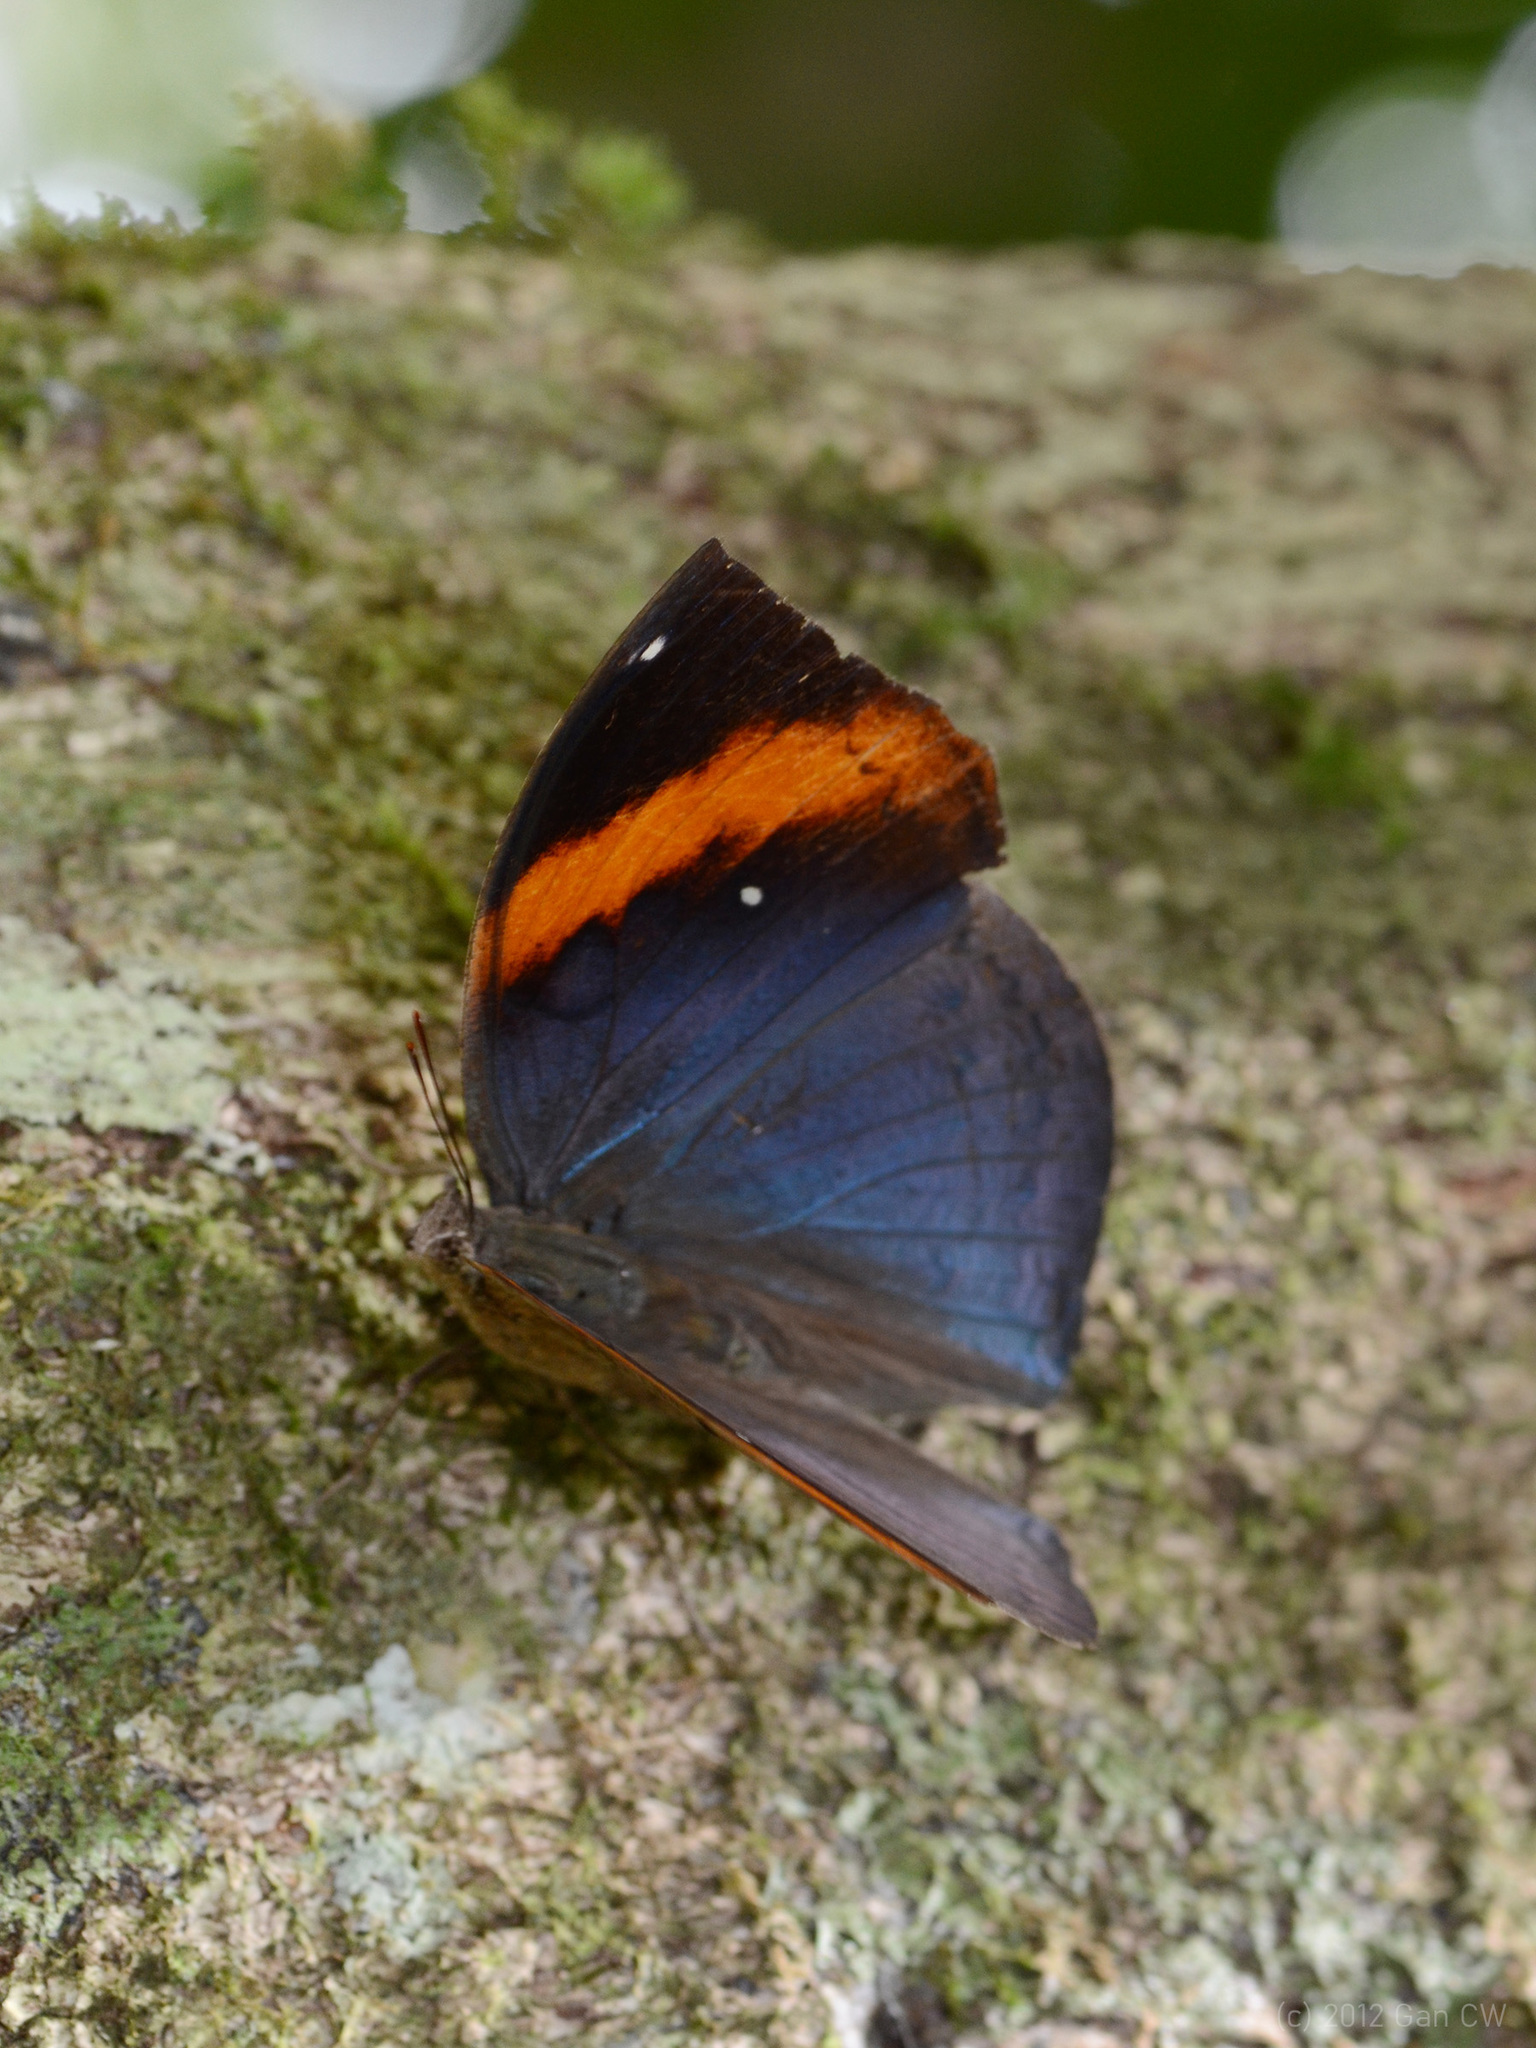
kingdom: Animalia
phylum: Arthropoda
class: Insecta
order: Lepidoptera
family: Nymphalidae
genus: Kallima
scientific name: Kallima paralekta
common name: Indian leafwing
